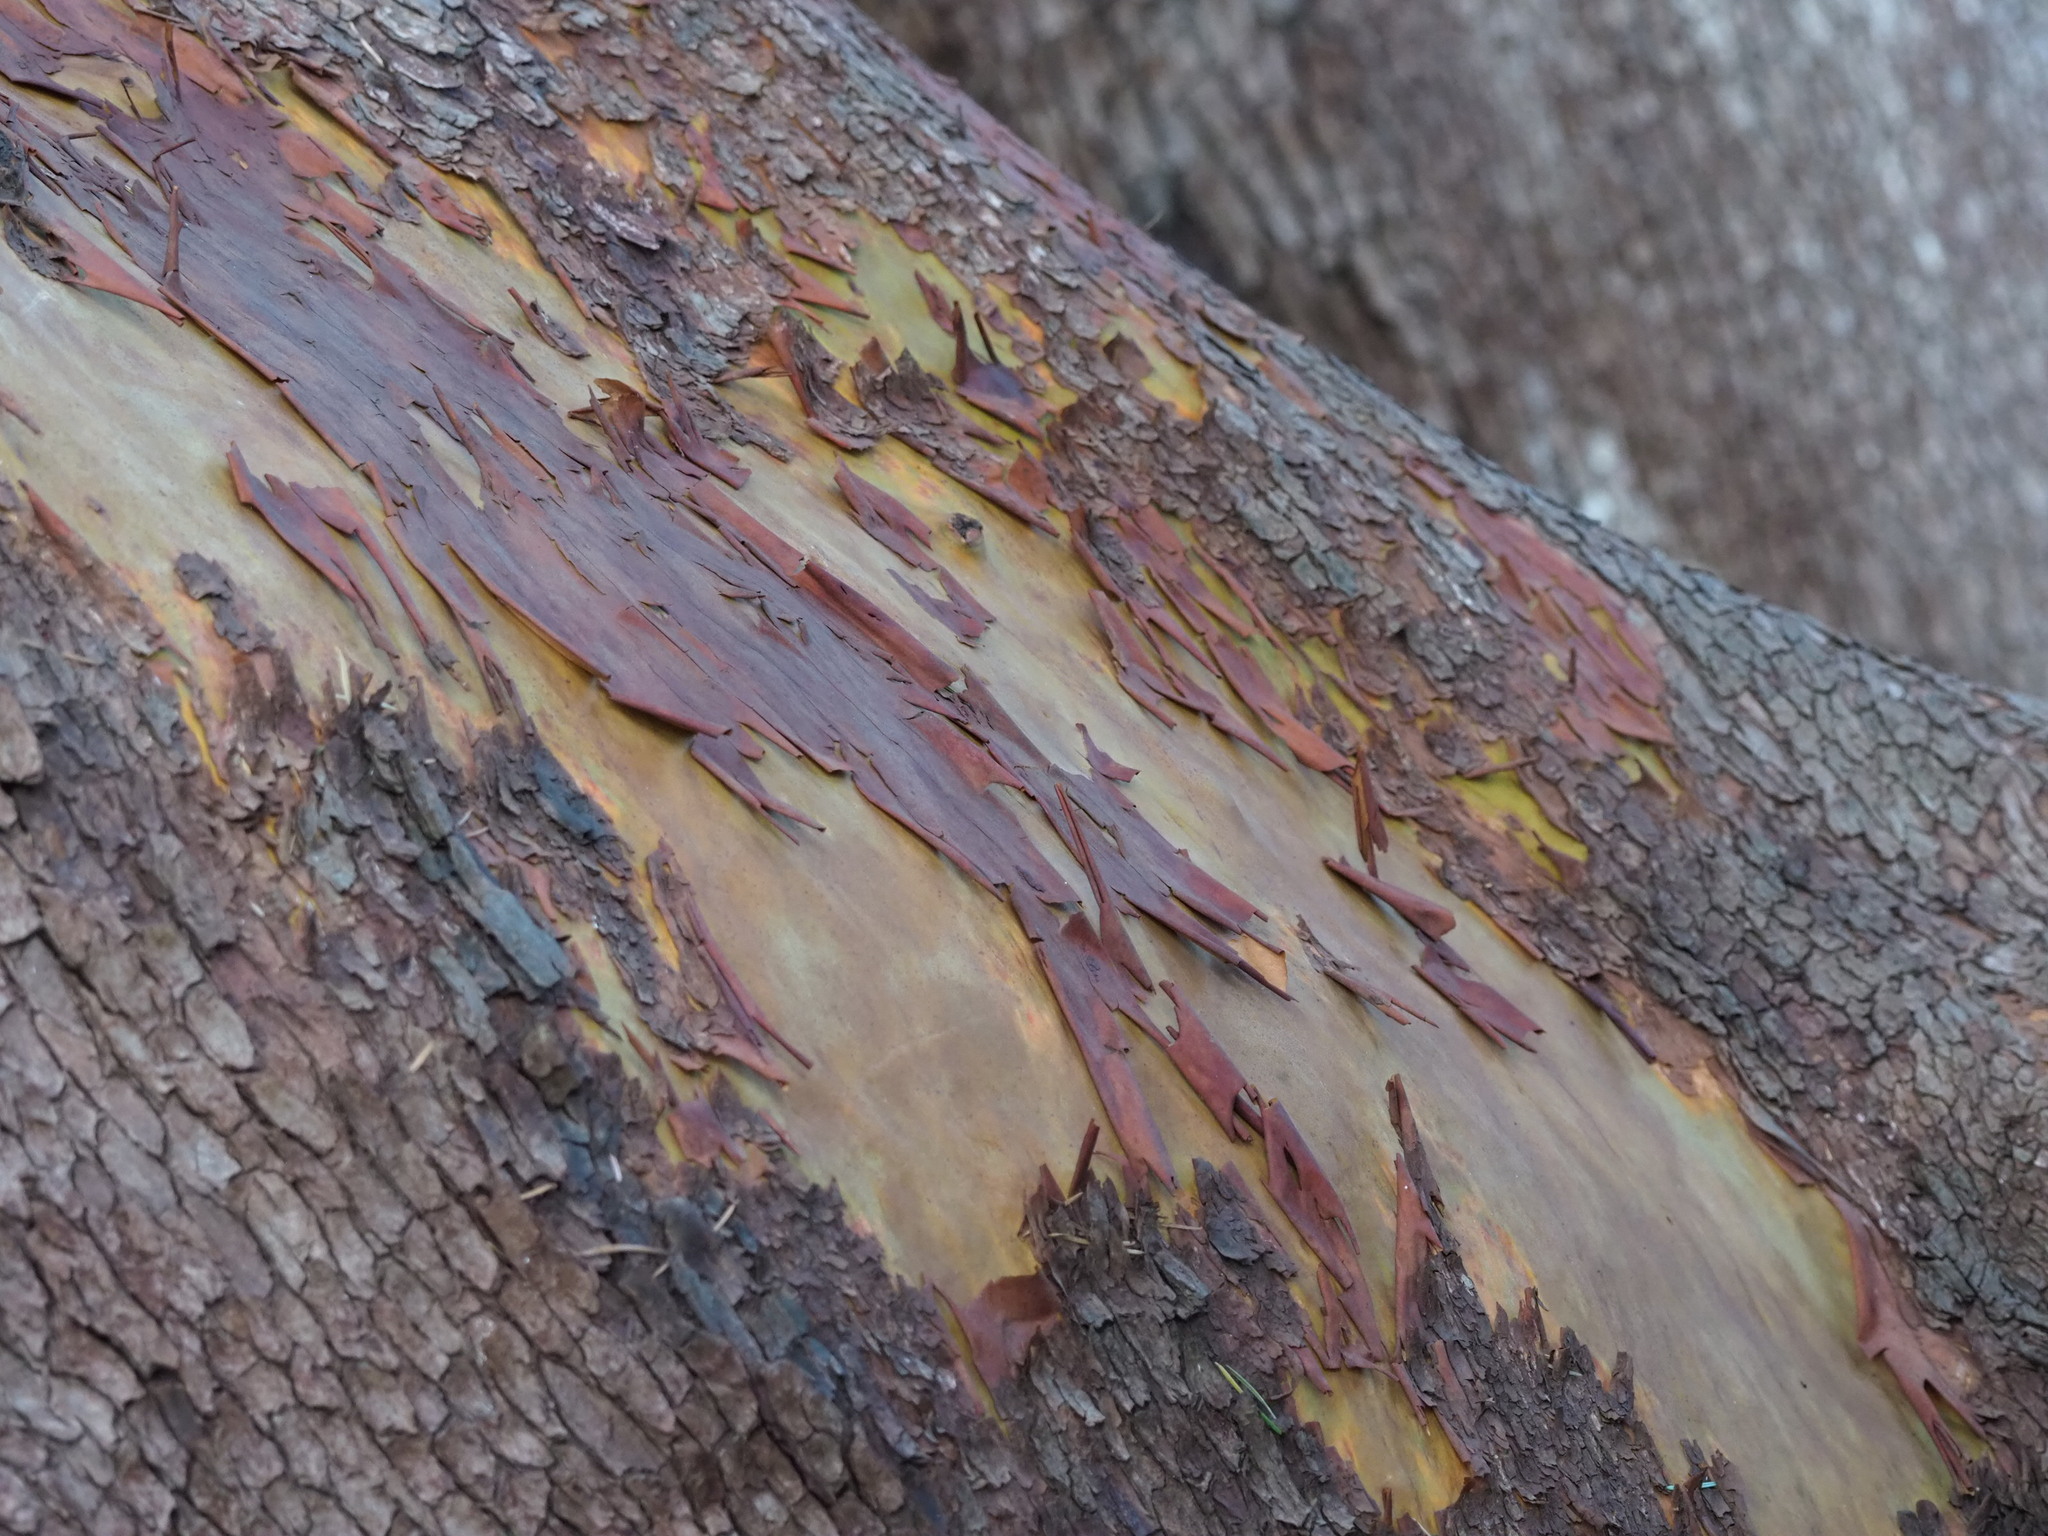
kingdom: Plantae
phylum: Tracheophyta
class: Magnoliopsida
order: Ericales
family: Ericaceae
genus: Arbutus
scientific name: Arbutus menziesii
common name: Pacific madrone
